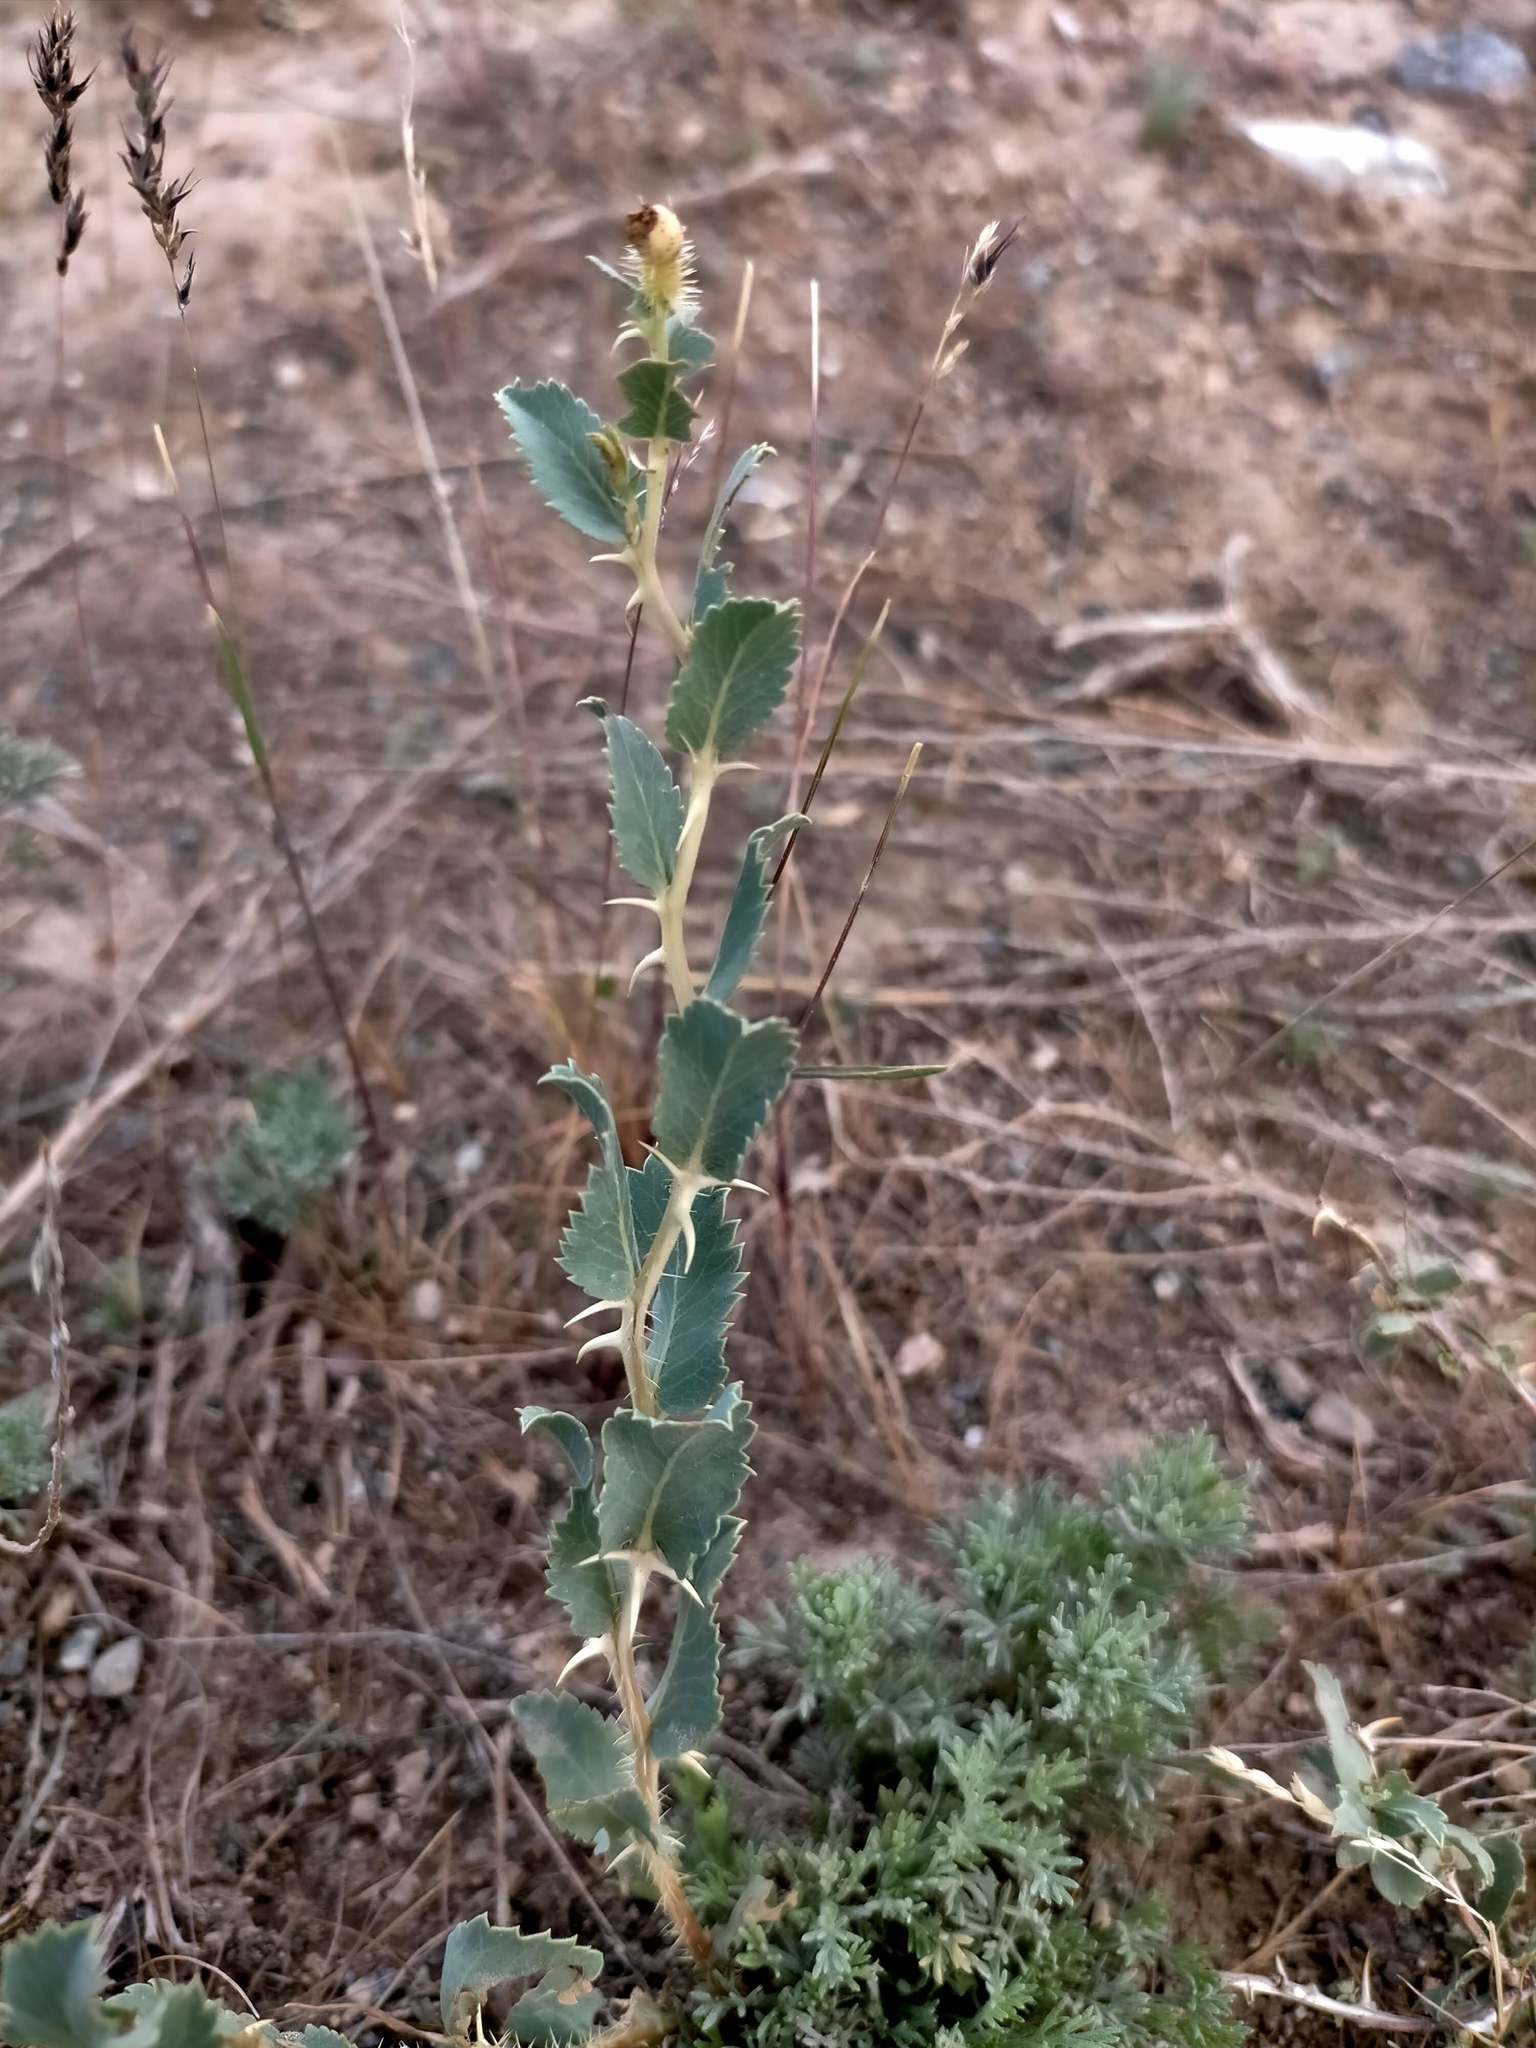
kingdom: Plantae
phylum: Tracheophyta
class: Magnoliopsida
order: Rosales
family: Rosaceae
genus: Rosa
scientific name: Rosa persica
